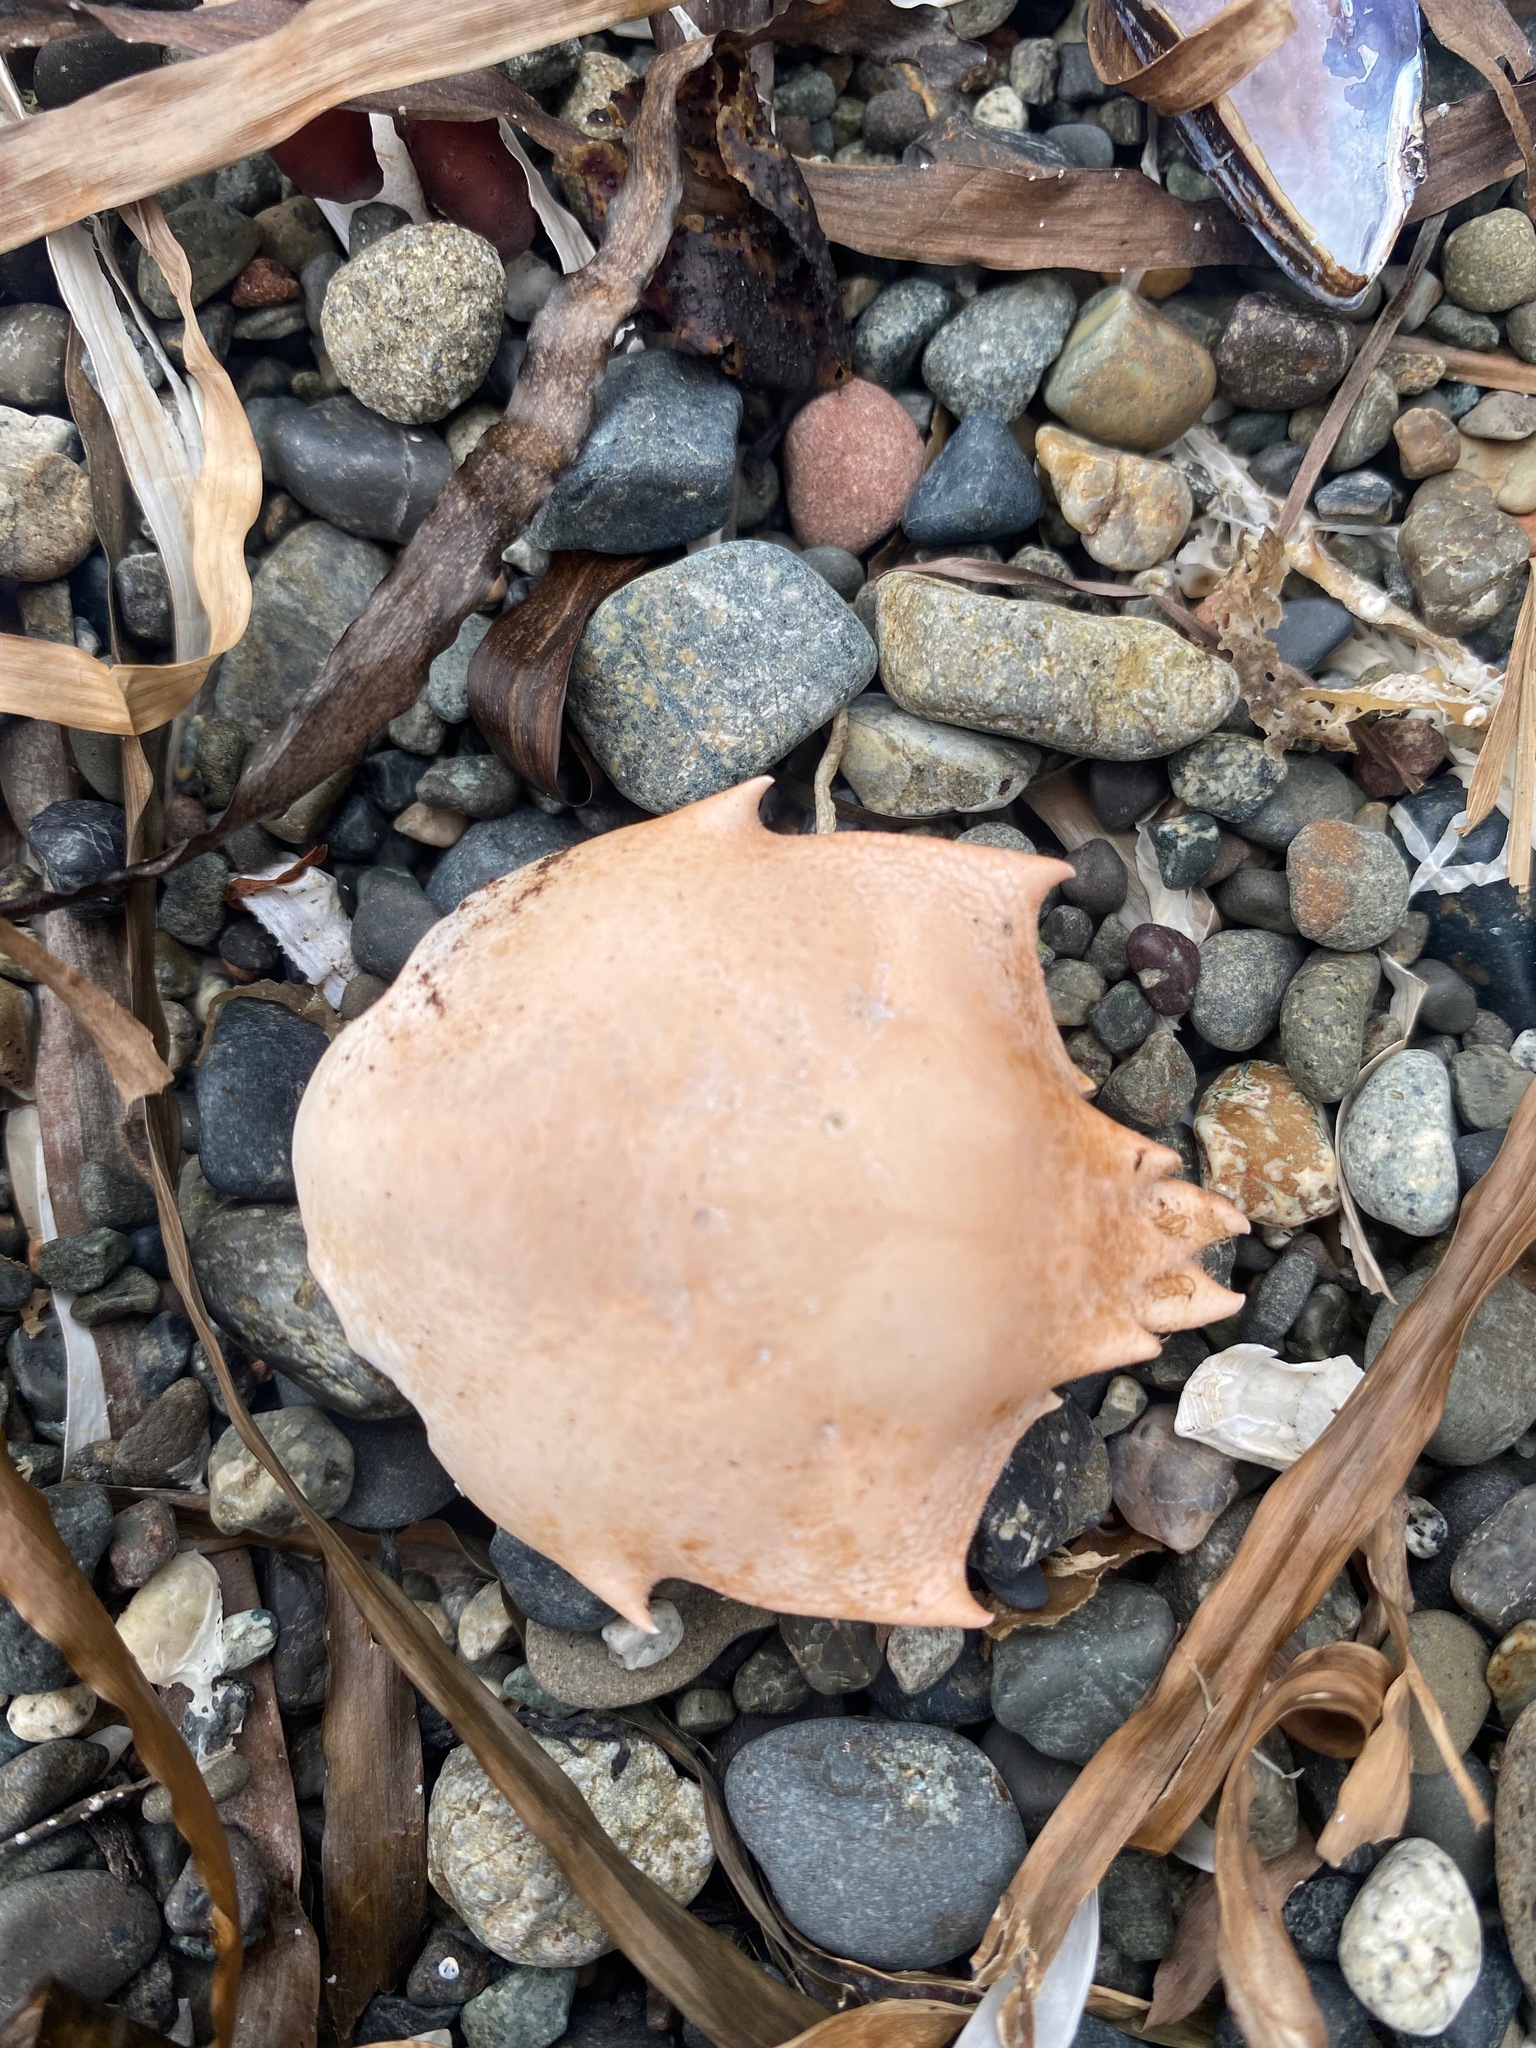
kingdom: Animalia
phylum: Arthropoda
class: Malacostraca
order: Decapoda
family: Epialtidae
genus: Pugettia
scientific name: Pugettia producta
